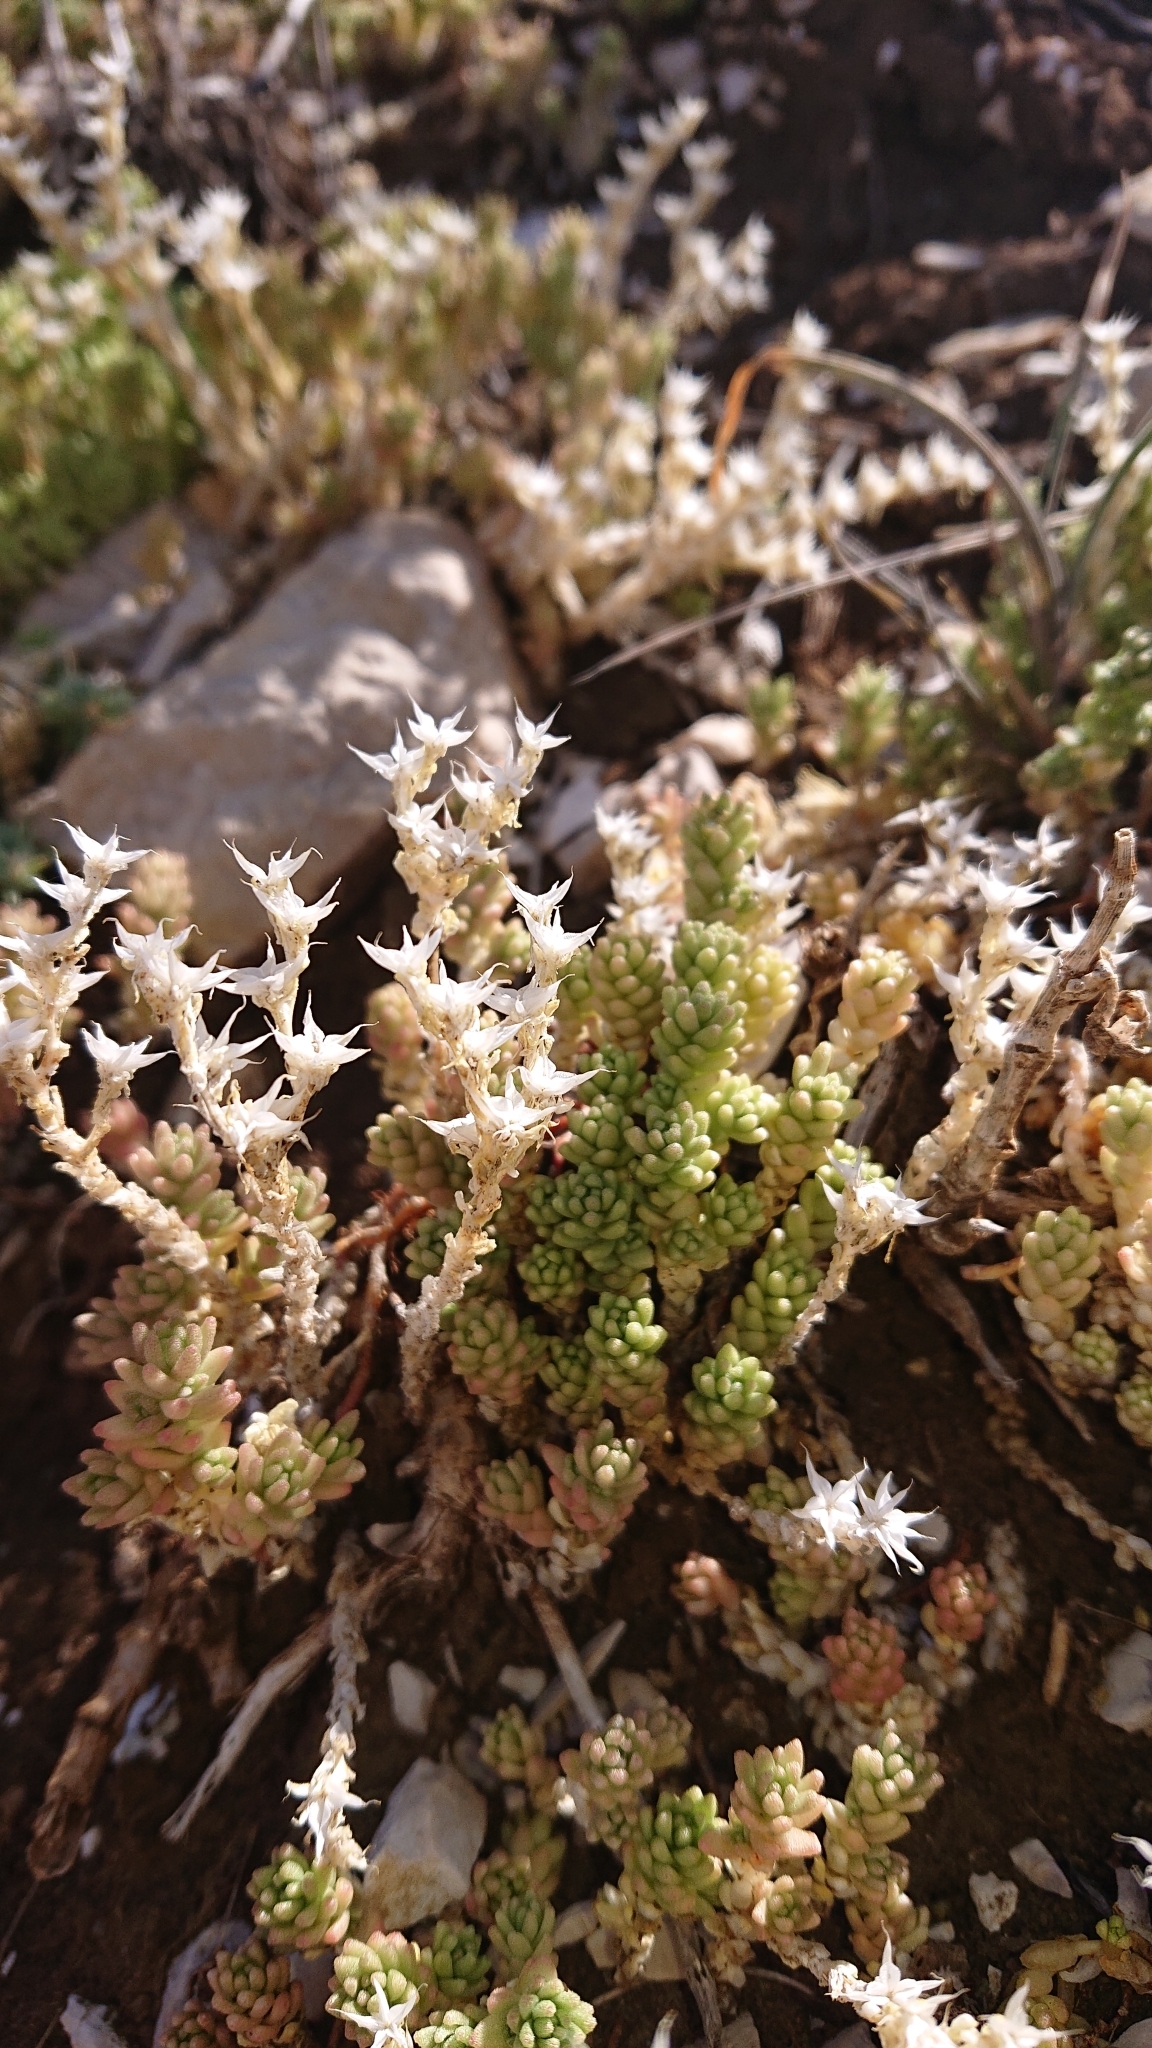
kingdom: Plantae
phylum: Tracheophyta
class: Magnoliopsida
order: Saxifragales
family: Crassulaceae
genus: Sedum
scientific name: Sedum acre
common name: Biting stonecrop
